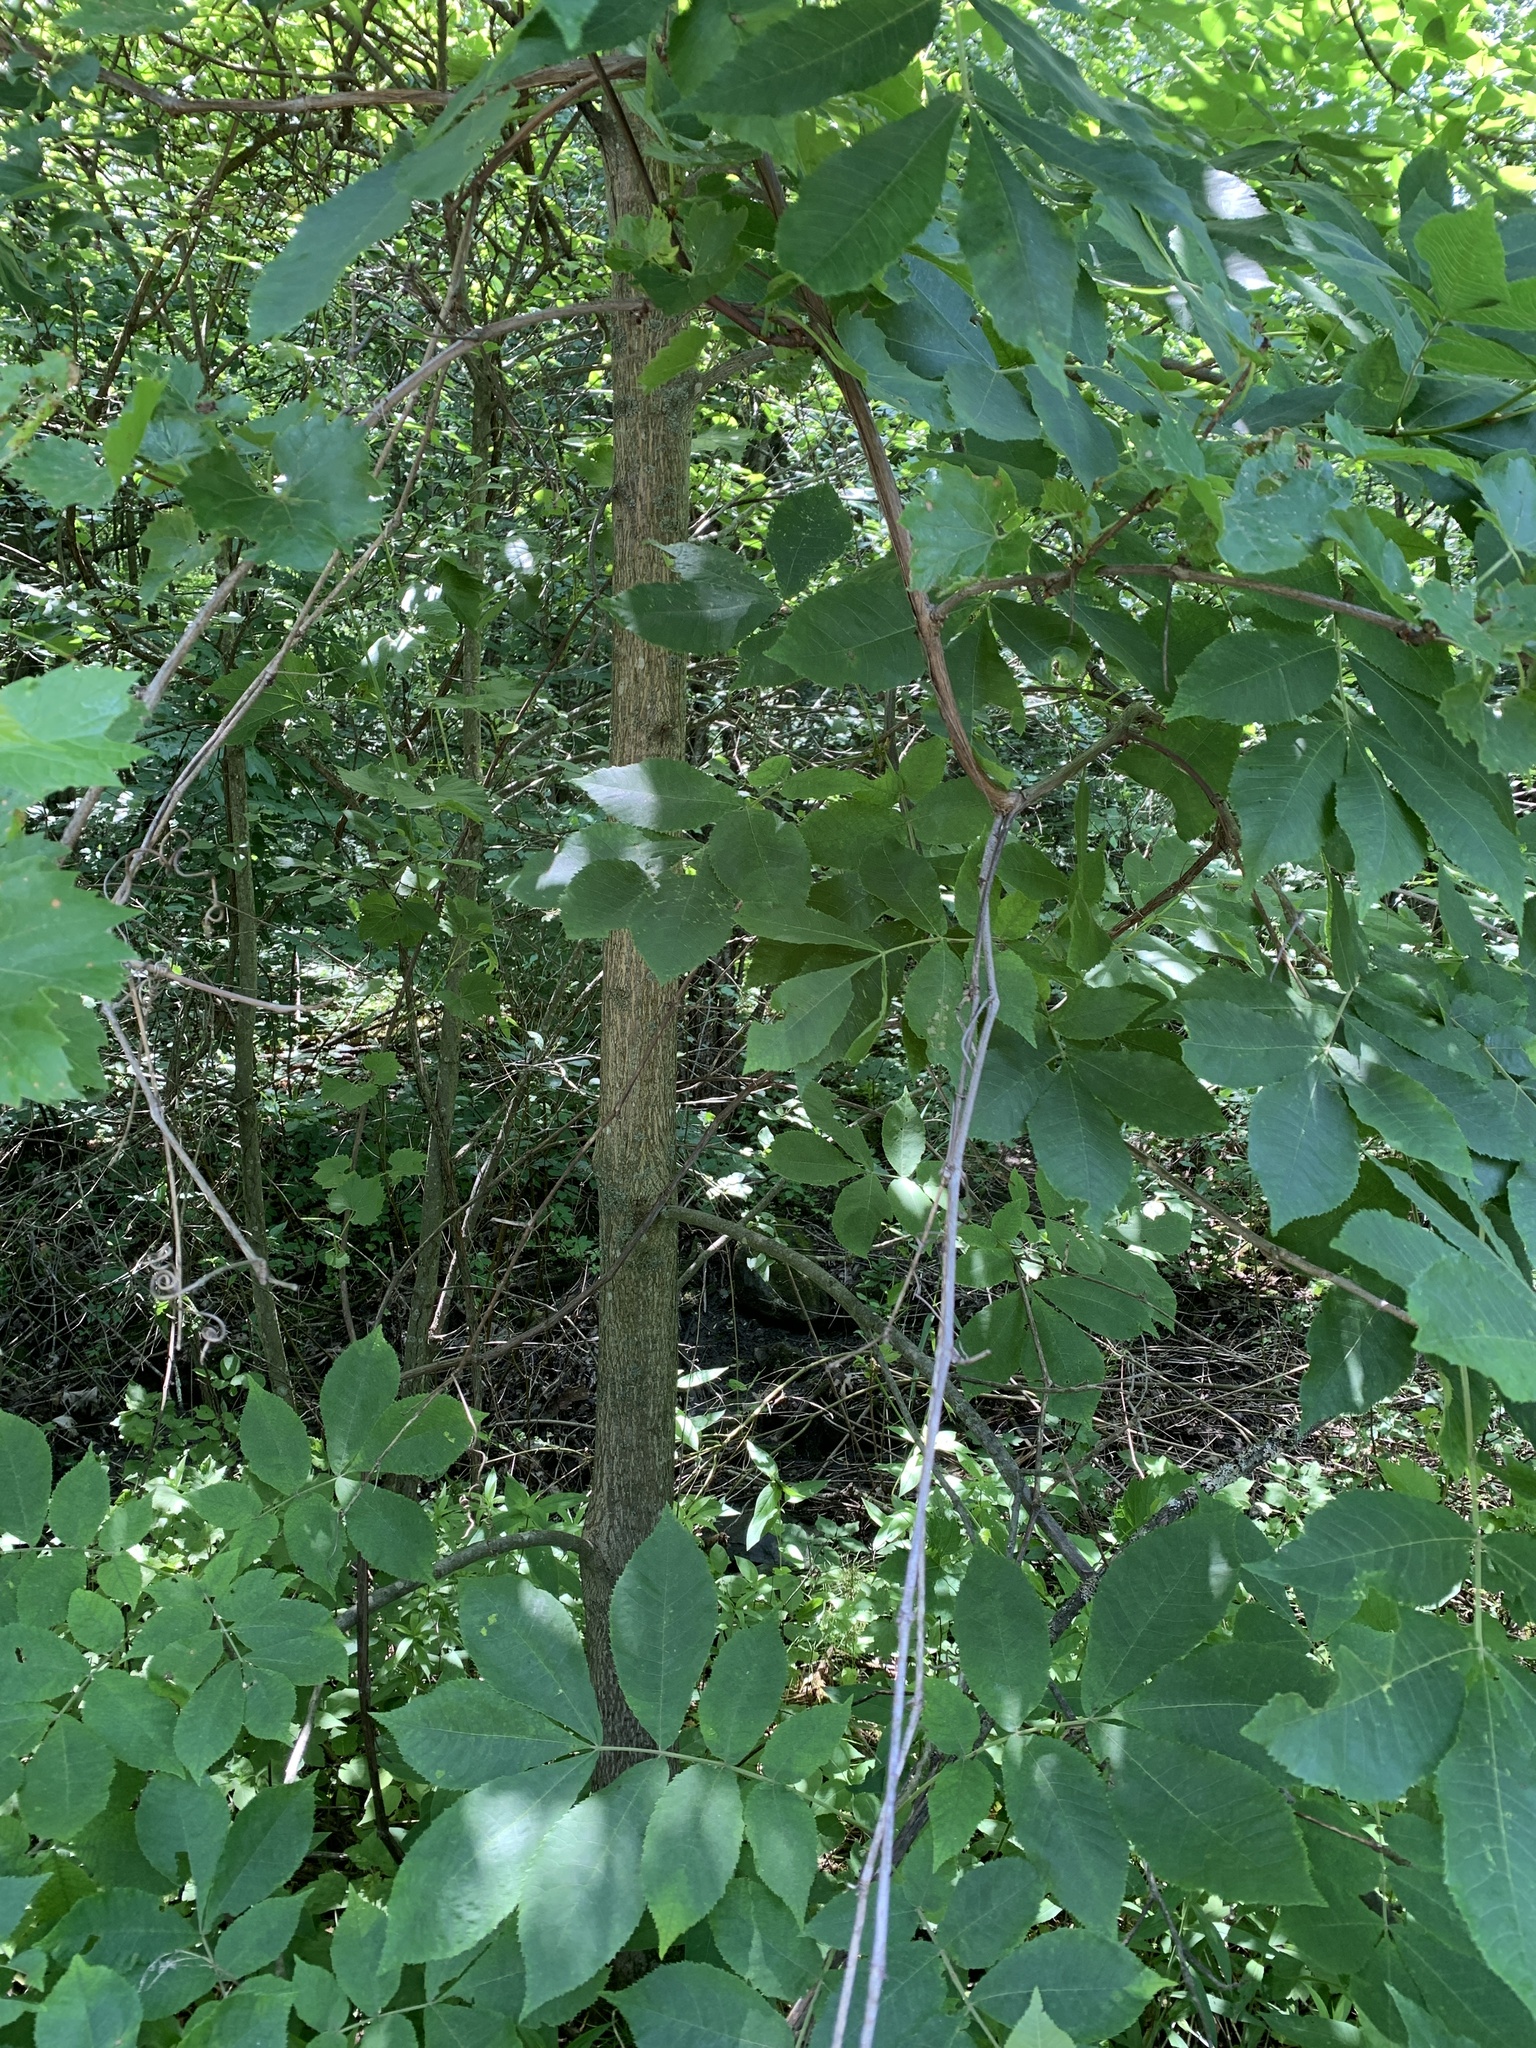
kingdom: Plantae
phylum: Tracheophyta
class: Magnoliopsida
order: Fagales
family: Juglandaceae
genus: Carya
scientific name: Carya cordiformis
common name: Bitternut hickory
